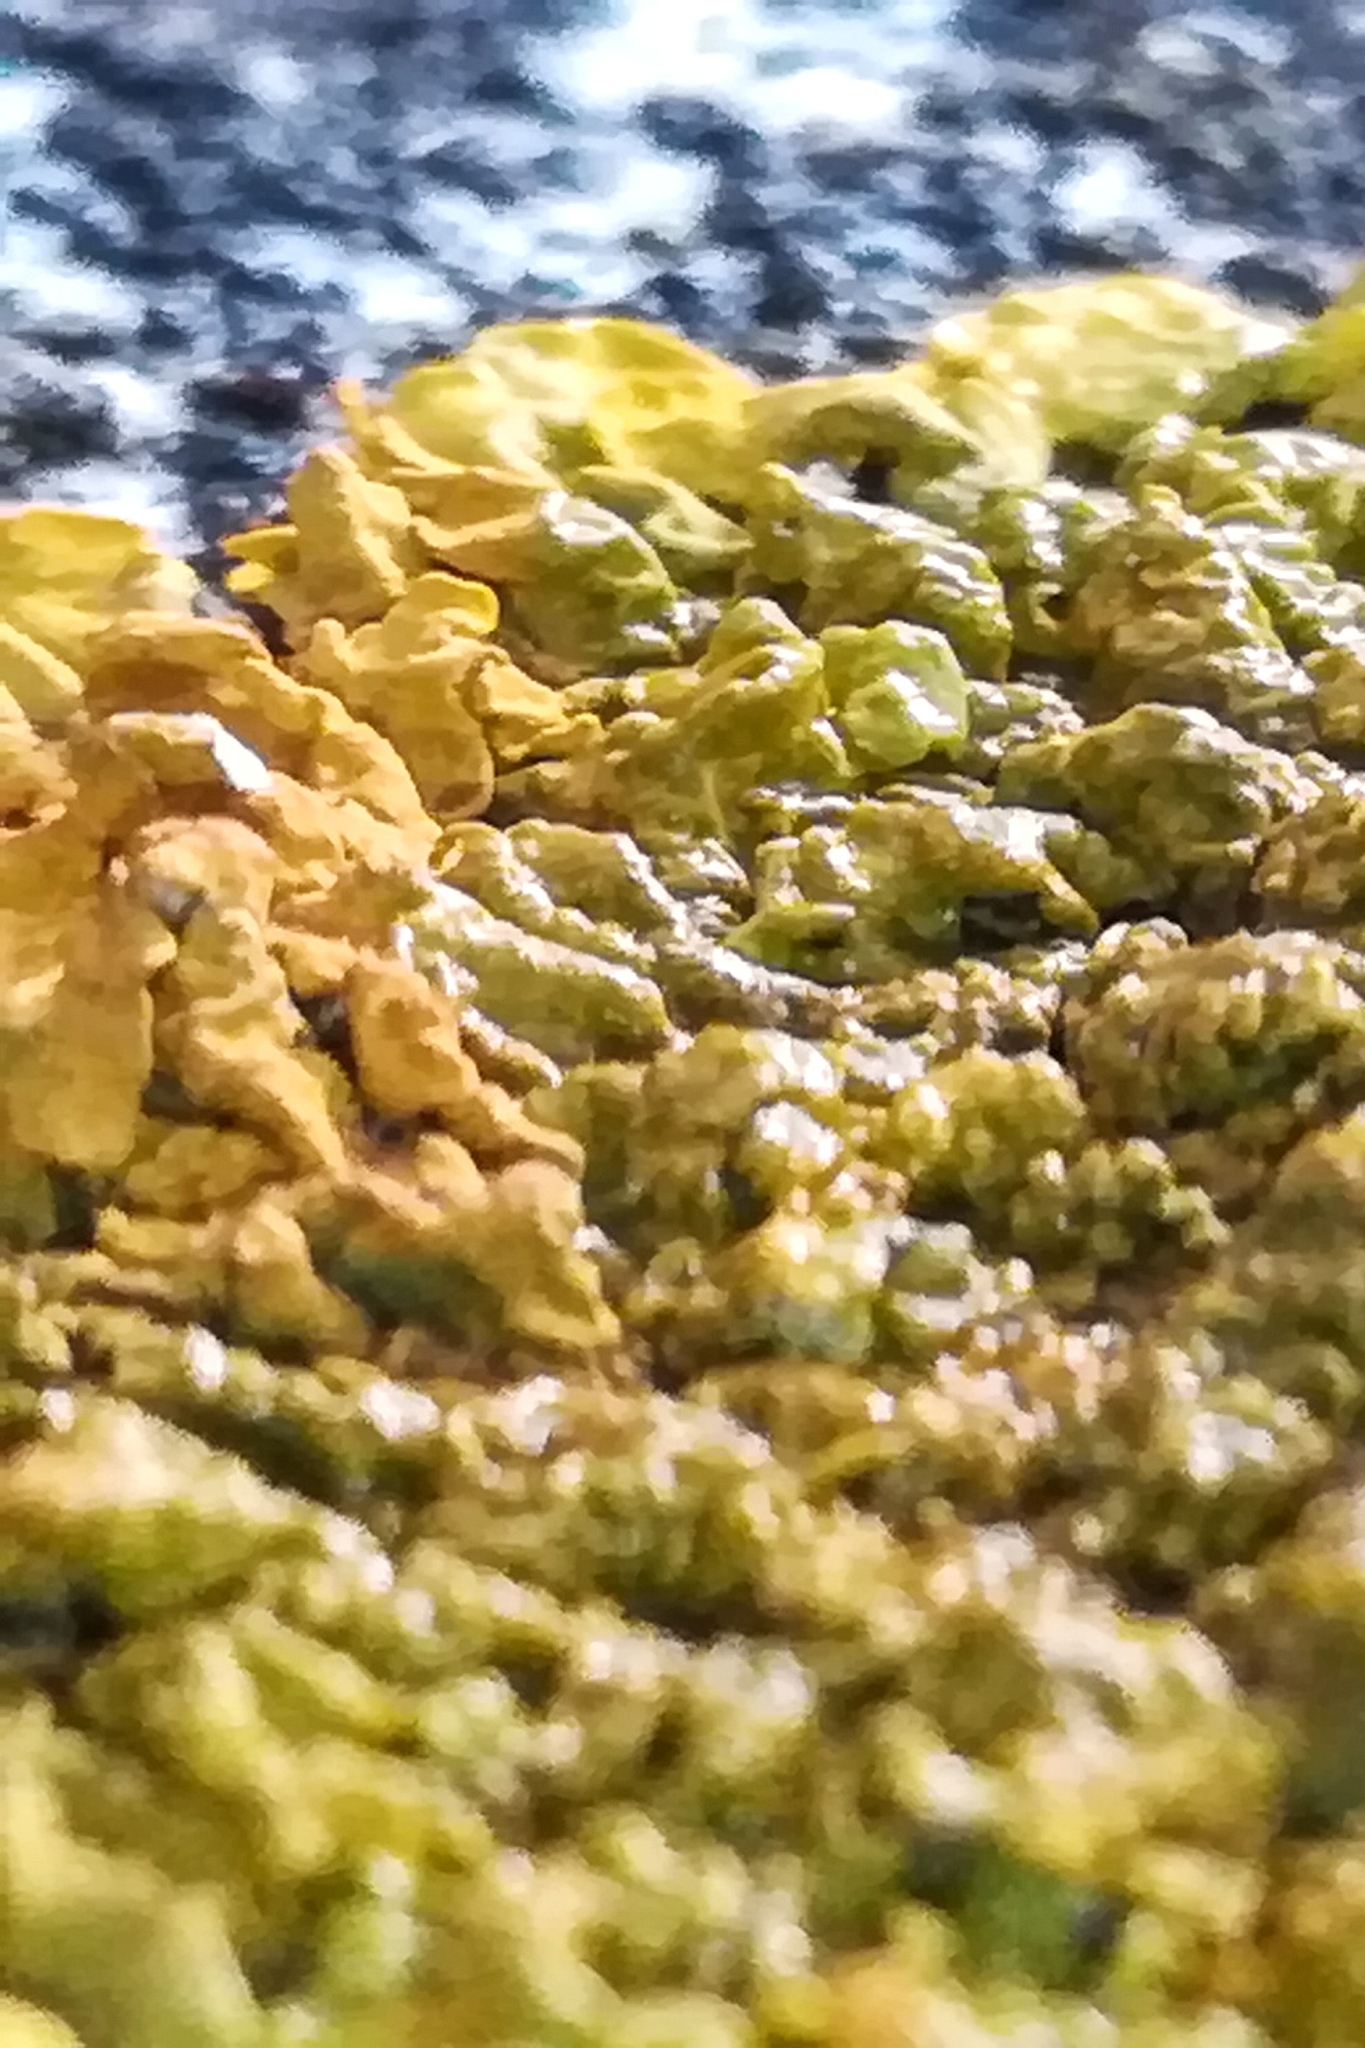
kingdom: Fungi
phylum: Ascomycota
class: Lecanoromycetes
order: Teloschistales
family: Teloschistaceae
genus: Xanthoria
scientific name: Xanthoria calcicola
